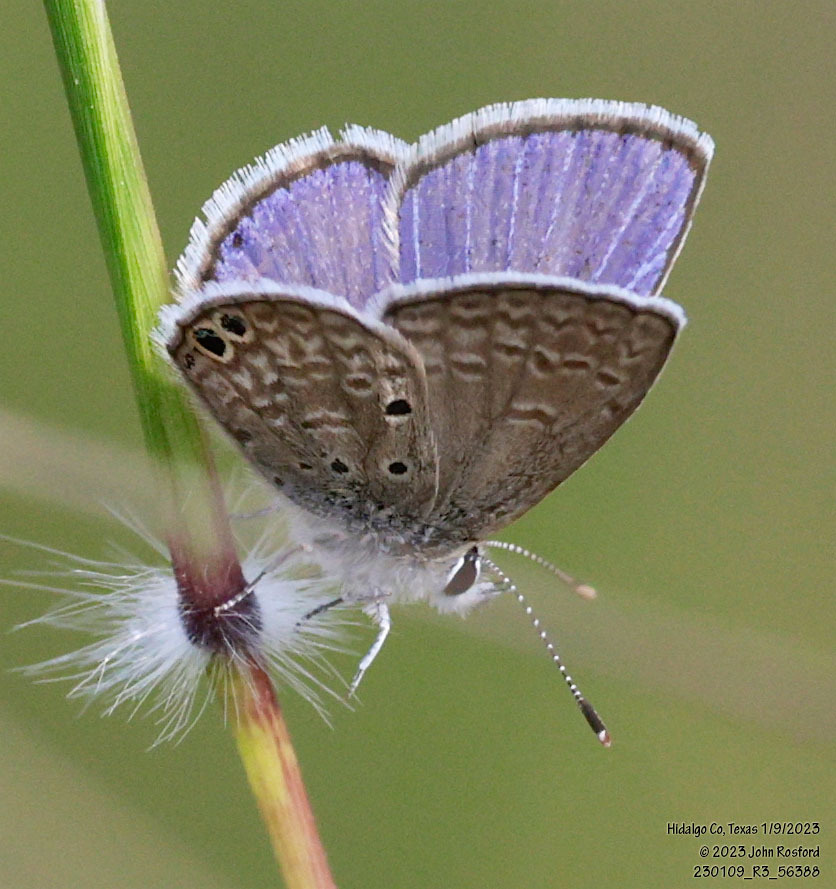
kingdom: Animalia
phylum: Arthropoda
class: Insecta
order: Lepidoptera
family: Lycaenidae
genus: Hemiargus
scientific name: Hemiargus ceraunus
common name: Ceraunus blue
